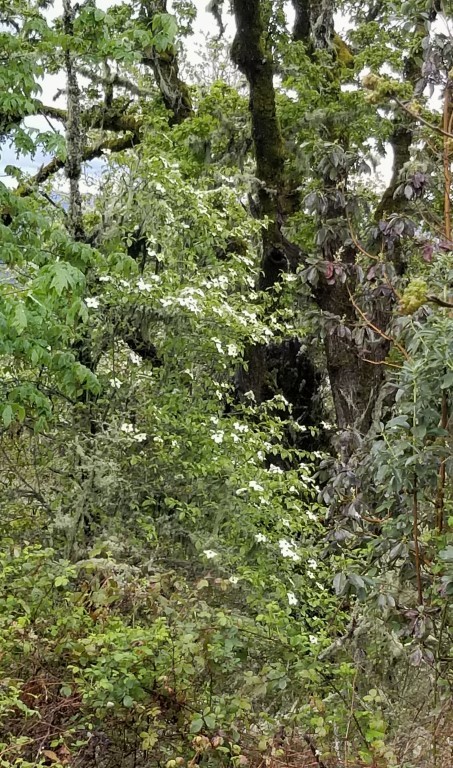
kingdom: Plantae
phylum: Tracheophyta
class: Magnoliopsida
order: Cornales
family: Cornaceae
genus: Cornus
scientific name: Cornus nuttallii
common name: Pacific dogwood
